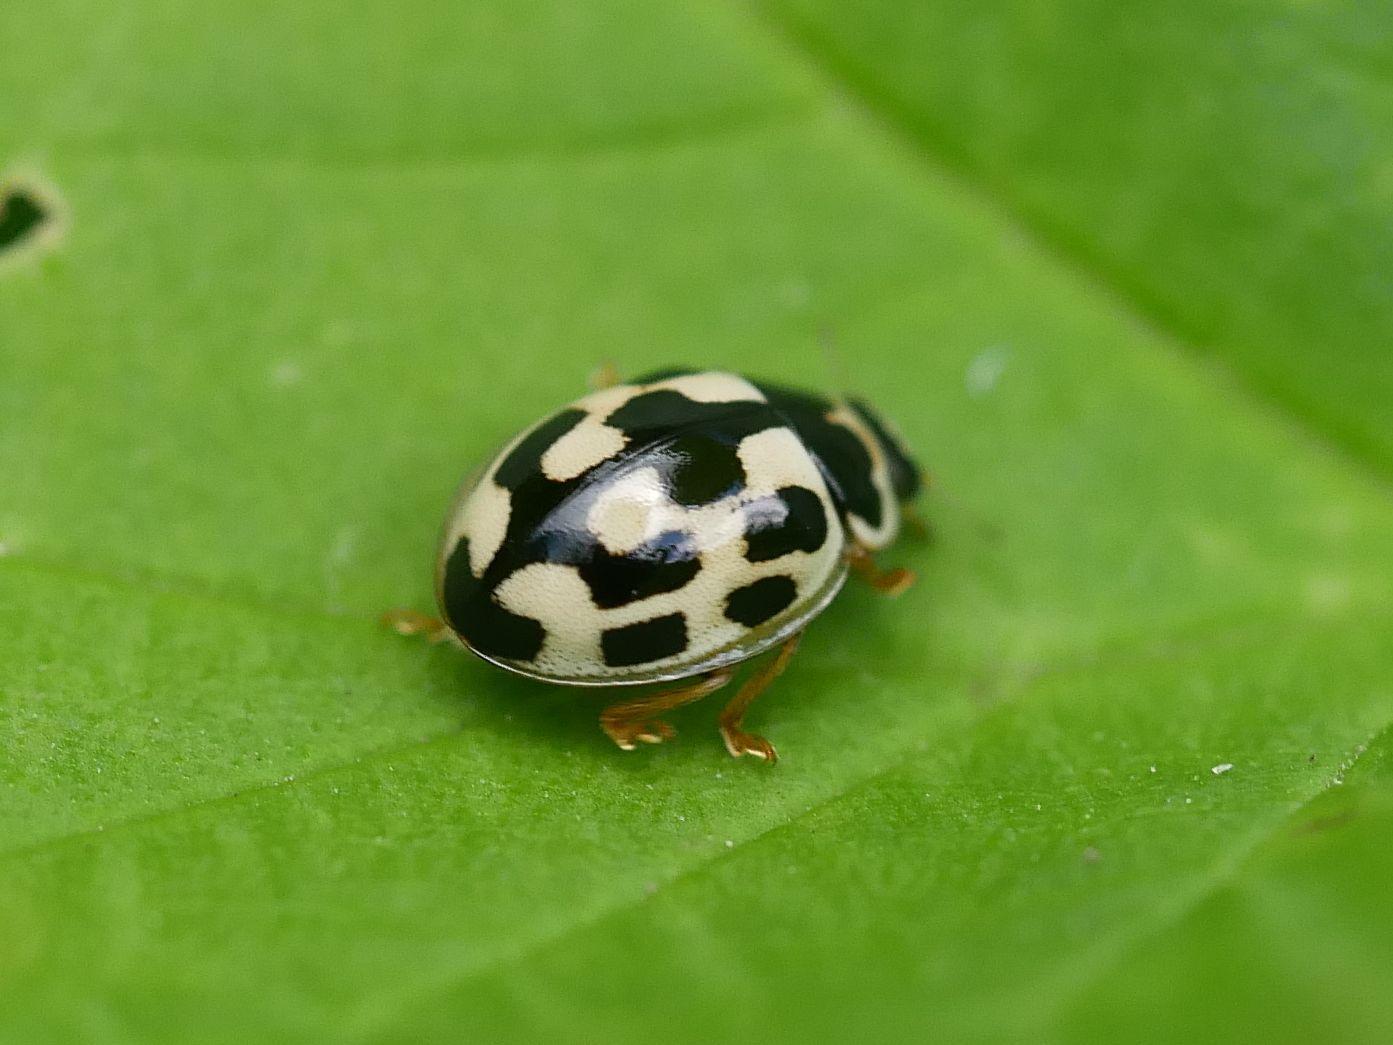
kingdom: Animalia
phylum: Arthropoda
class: Insecta
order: Coleoptera
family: Coccinellidae
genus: Propylaea
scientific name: Propylaea quatuordecimpunctata
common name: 14-spotted ladybird beetle
